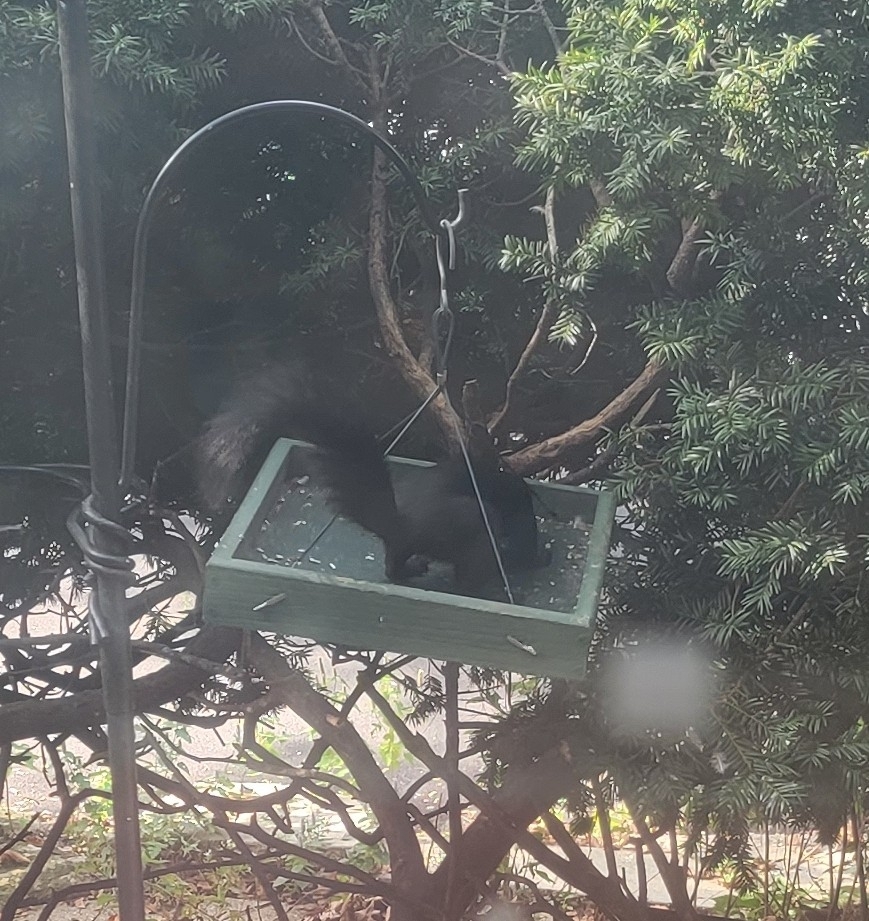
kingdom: Animalia
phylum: Chordata
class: Mammalia
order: Rodentia
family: Sciuridae
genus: Sciurus
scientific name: Sciurus carolinensis
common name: Eastern gray squirrel
